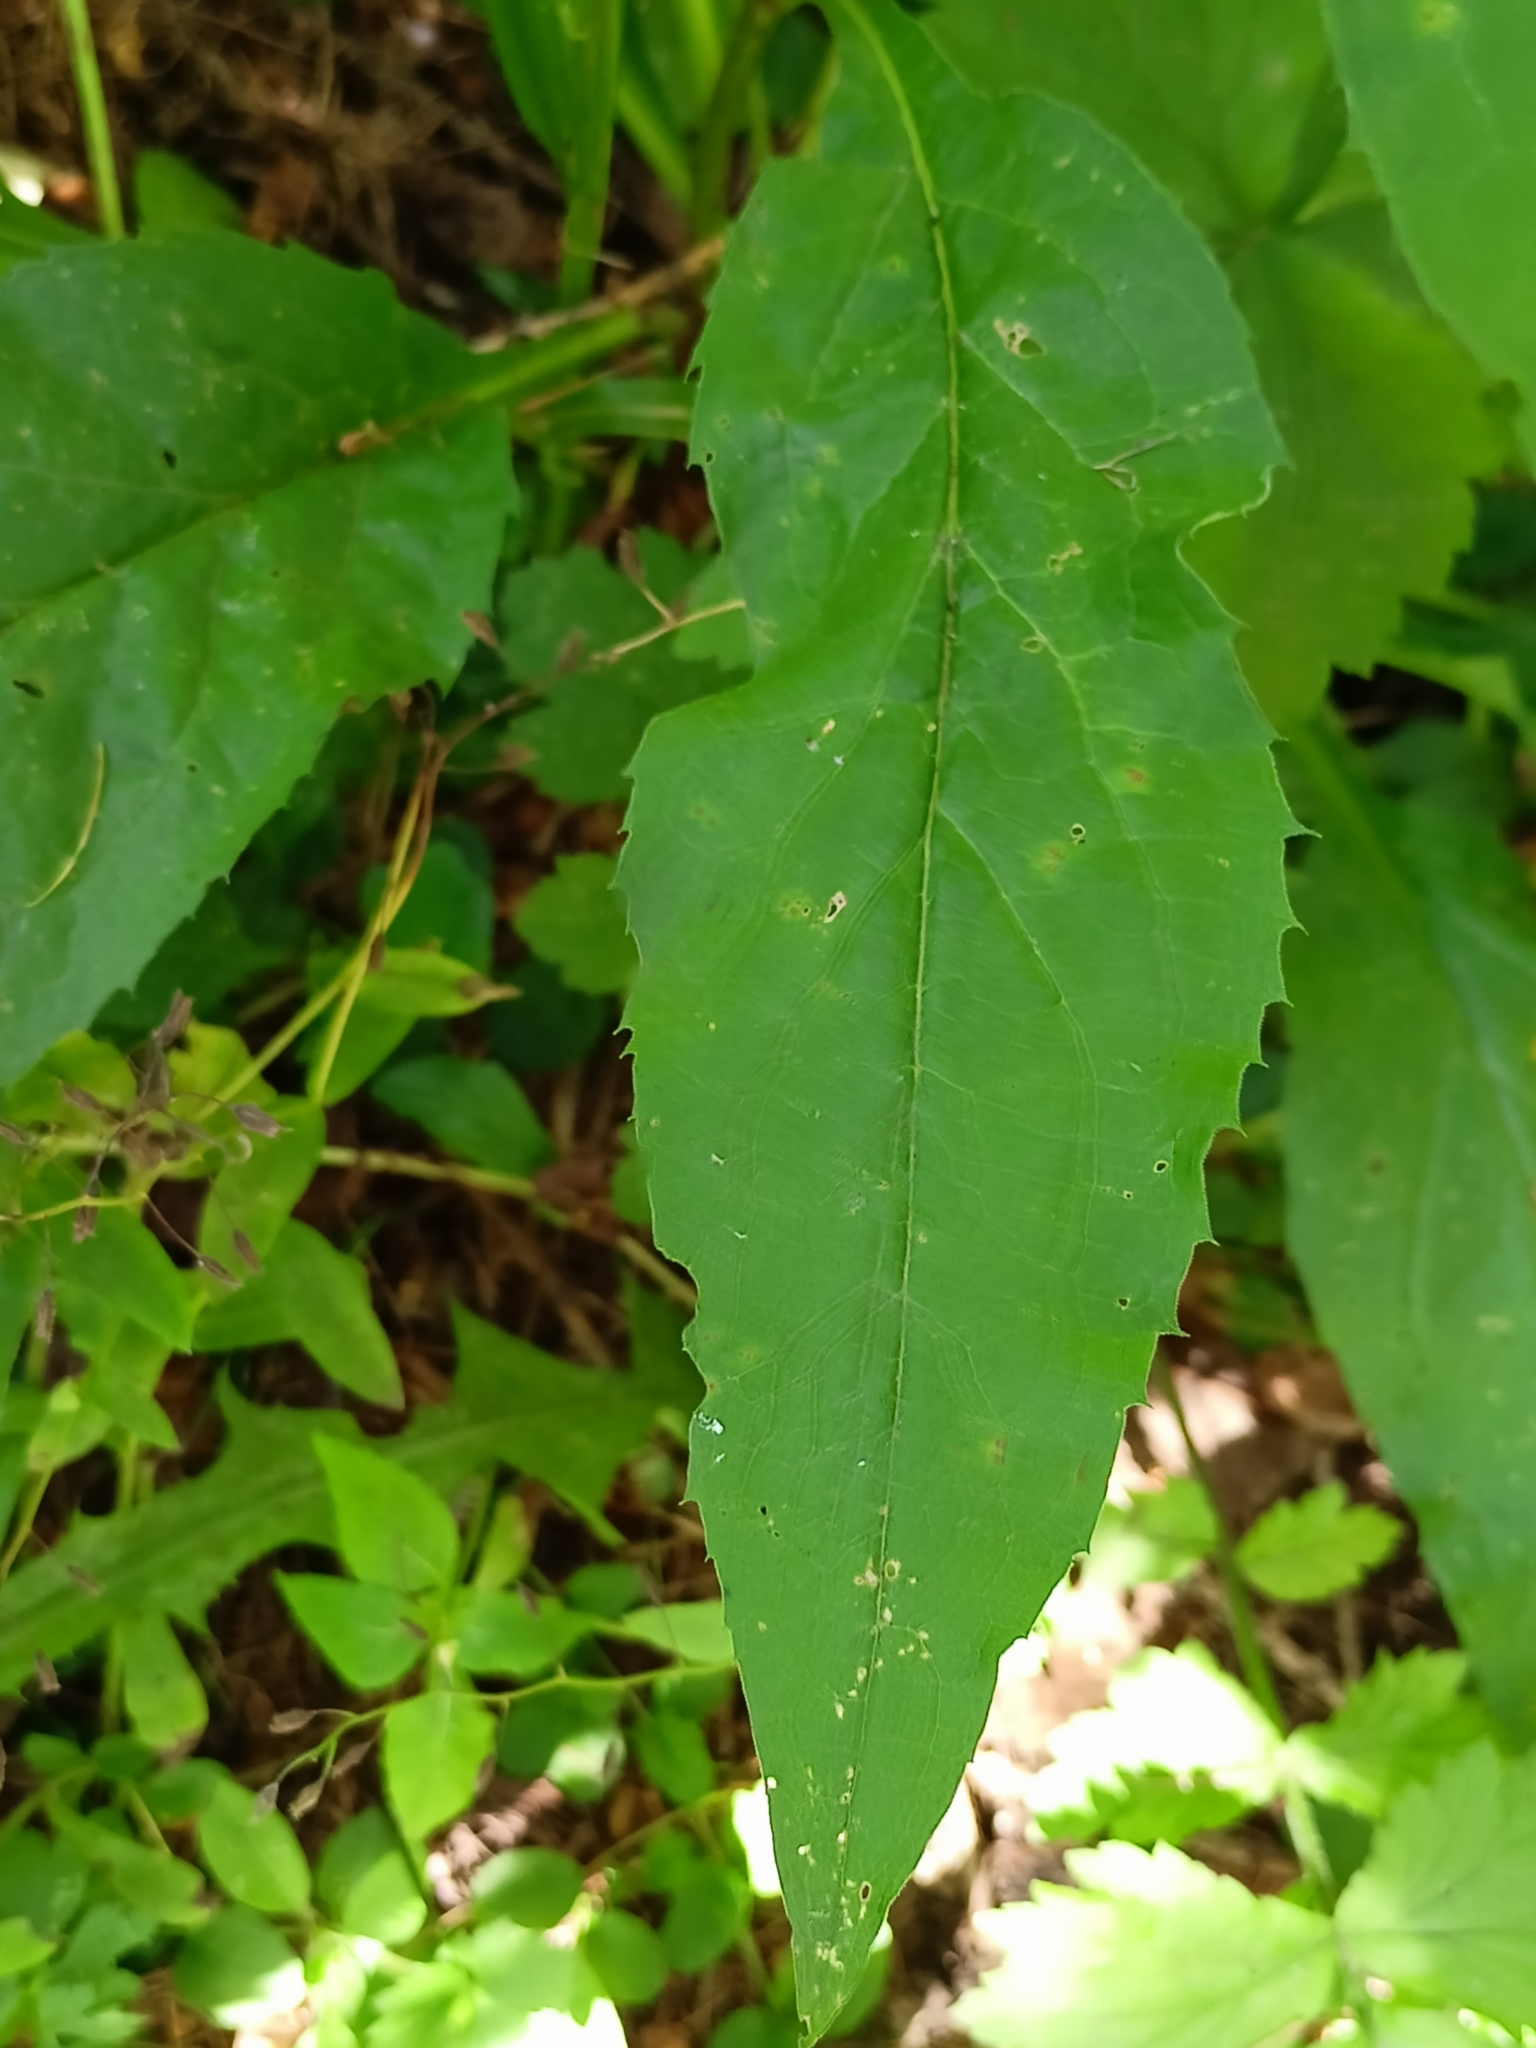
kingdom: Plantae
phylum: Tracheophyta
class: Magnoliopsida
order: Asterales
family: Asteraceae
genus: Solidago
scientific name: Solidago virgaurea
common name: Goldenrod
